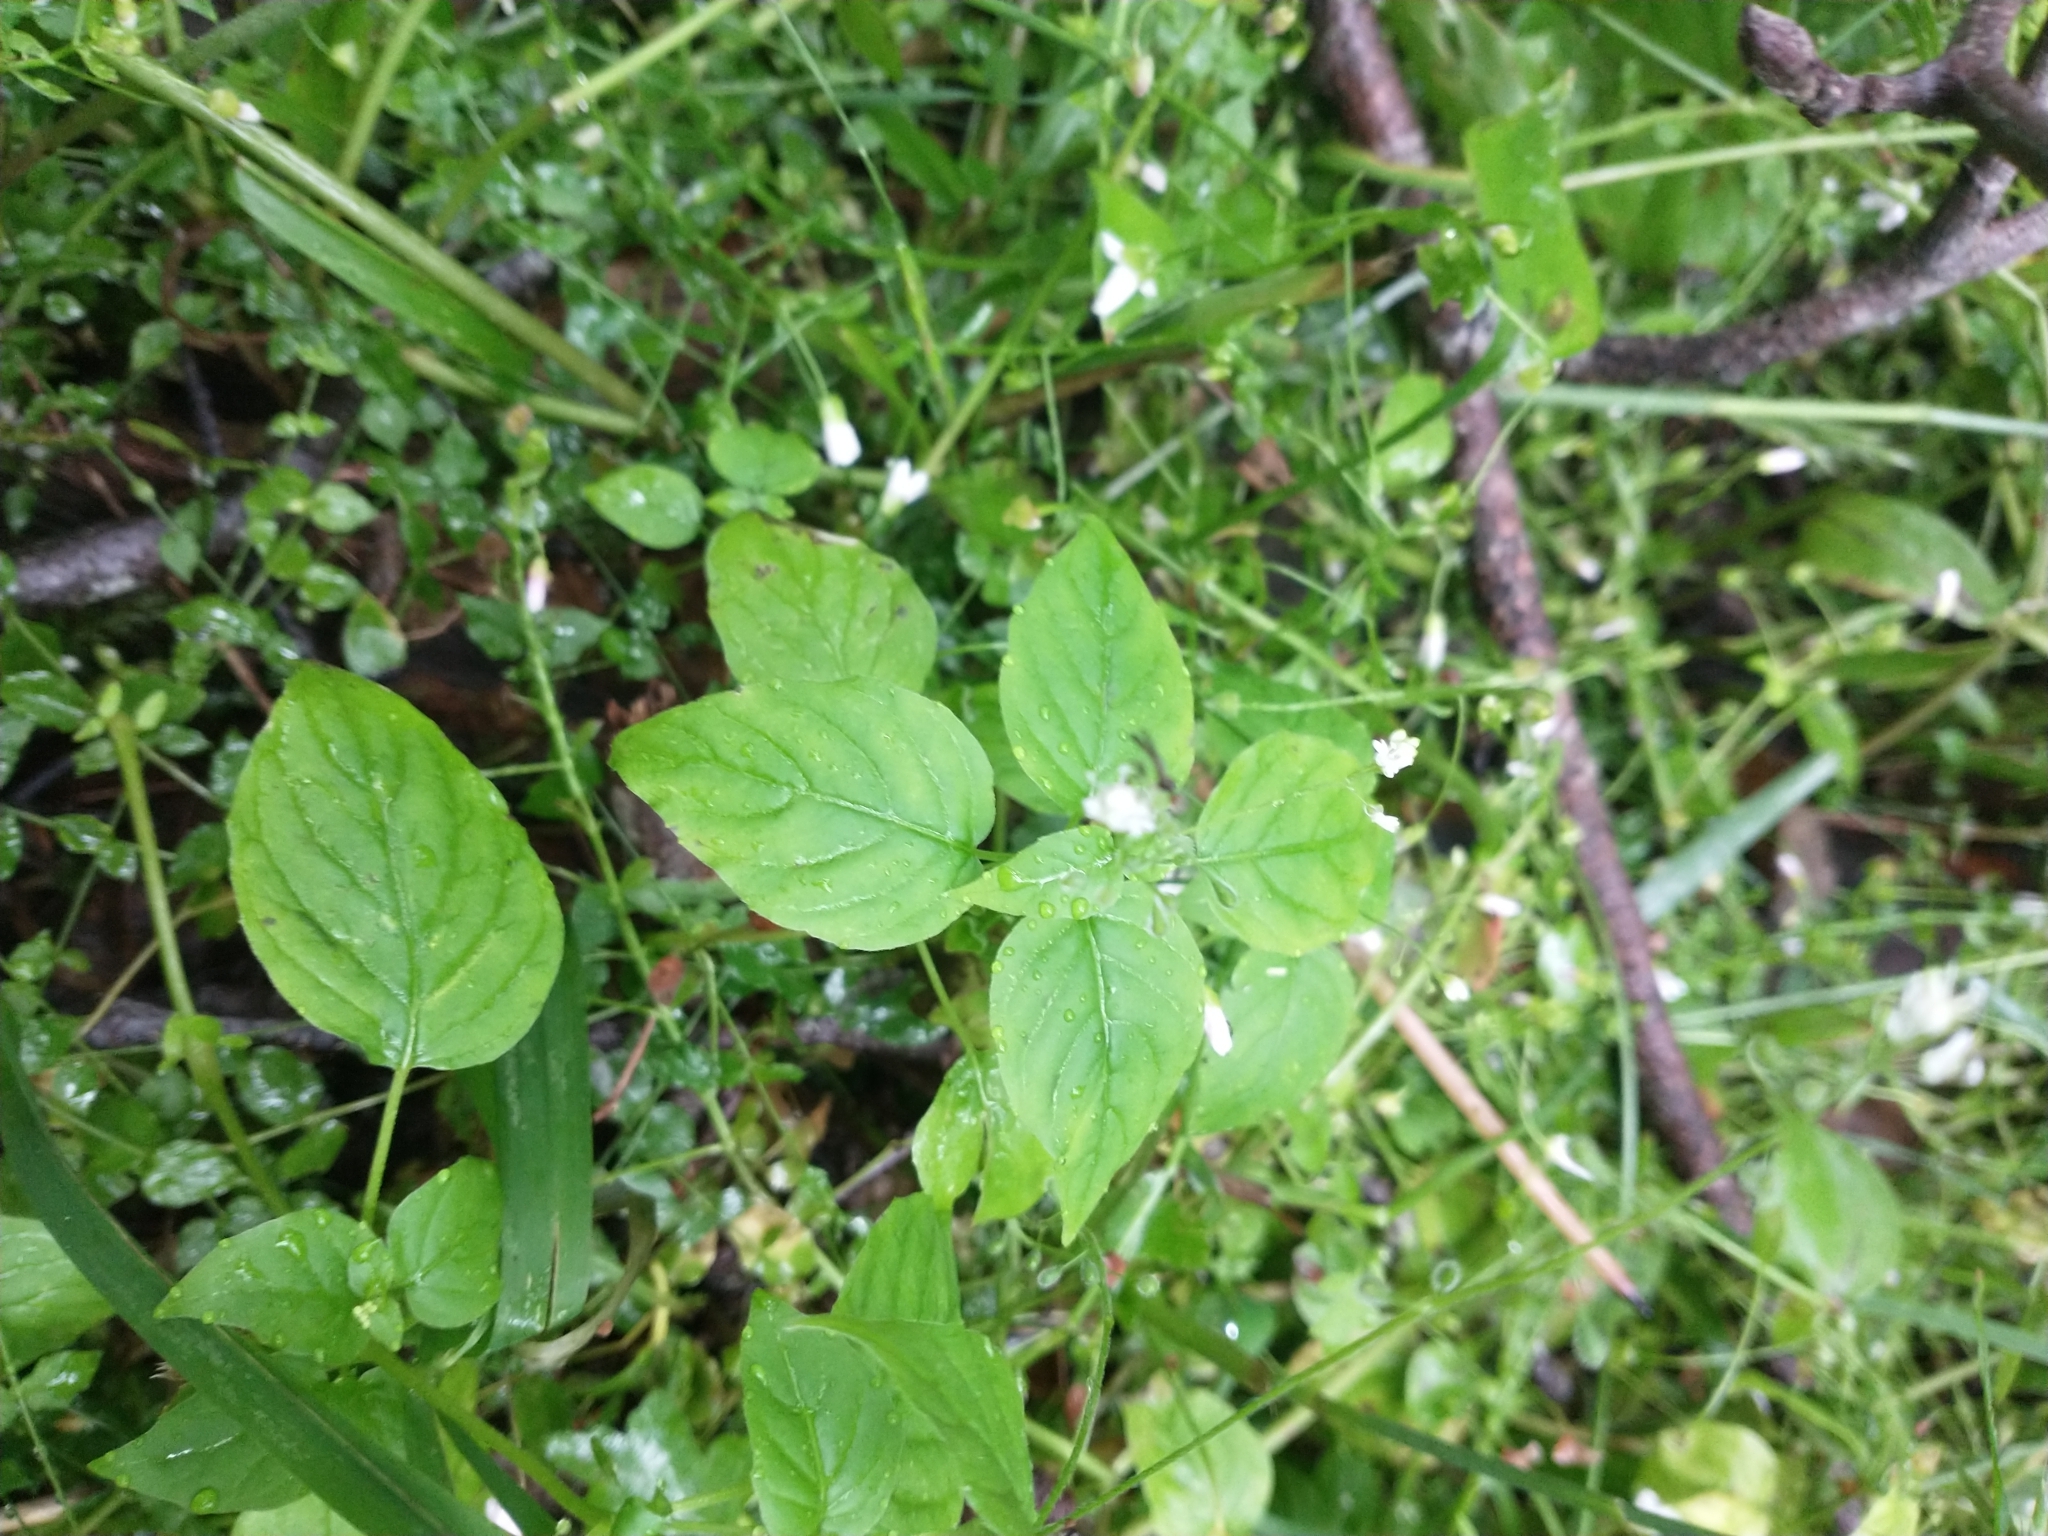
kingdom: Plantae
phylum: Tracheophyta
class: Magnoliopsida
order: Myrtales
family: Onagraceae
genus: Circaea
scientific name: Circaea alpina
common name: Alpine enchanter's-nightshade
